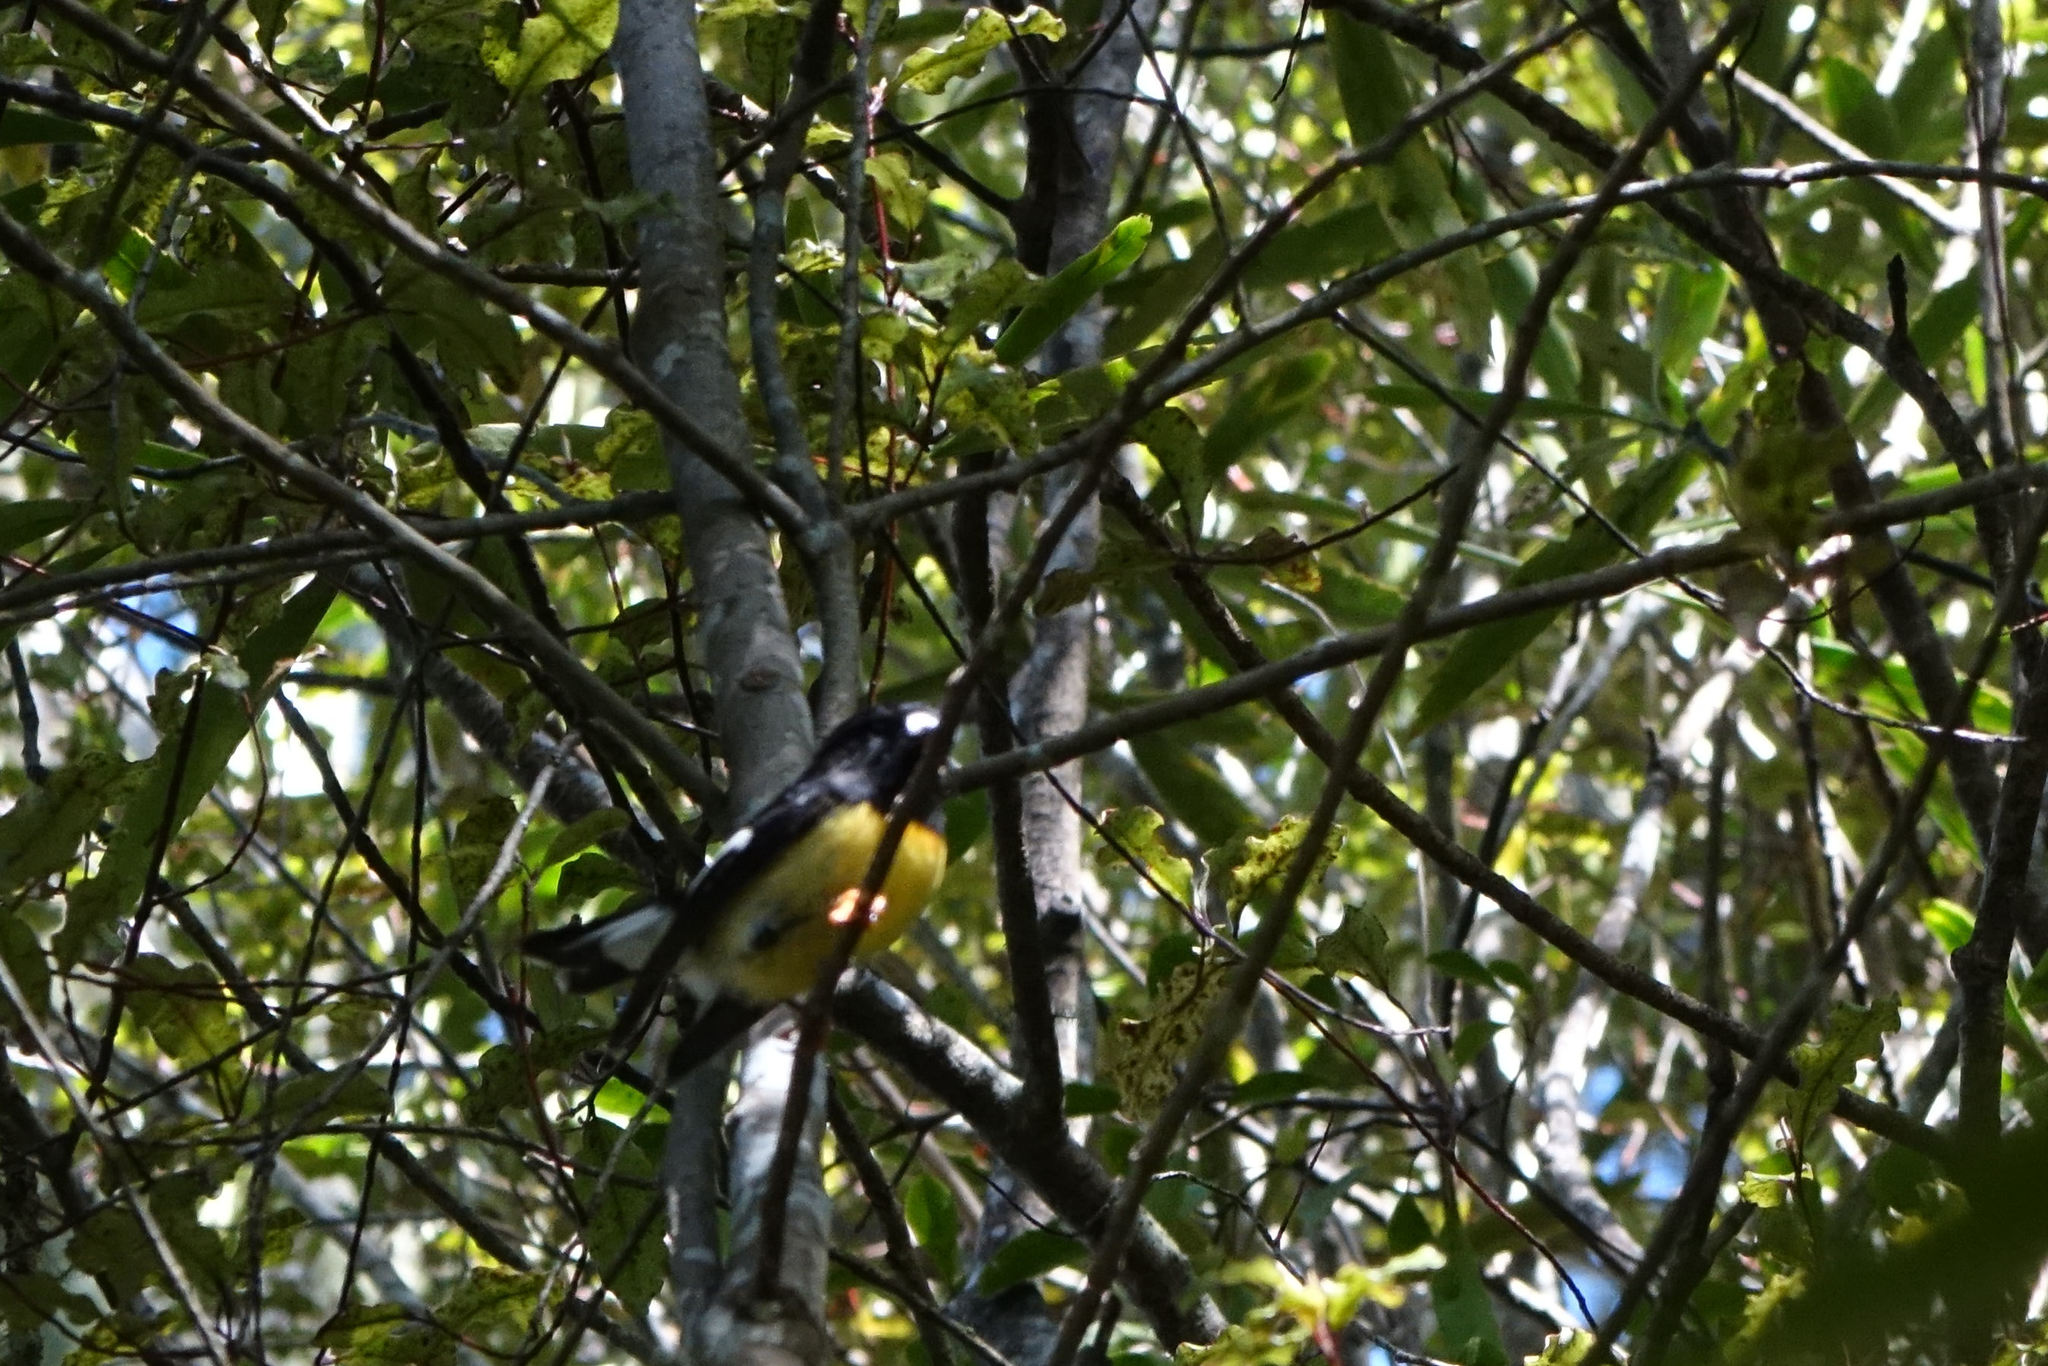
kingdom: Animalia
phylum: Chordata
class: Aves
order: Passeriformes
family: Petroicidae
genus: Petroica
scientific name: Petroica macrocephala
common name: Tomtit
